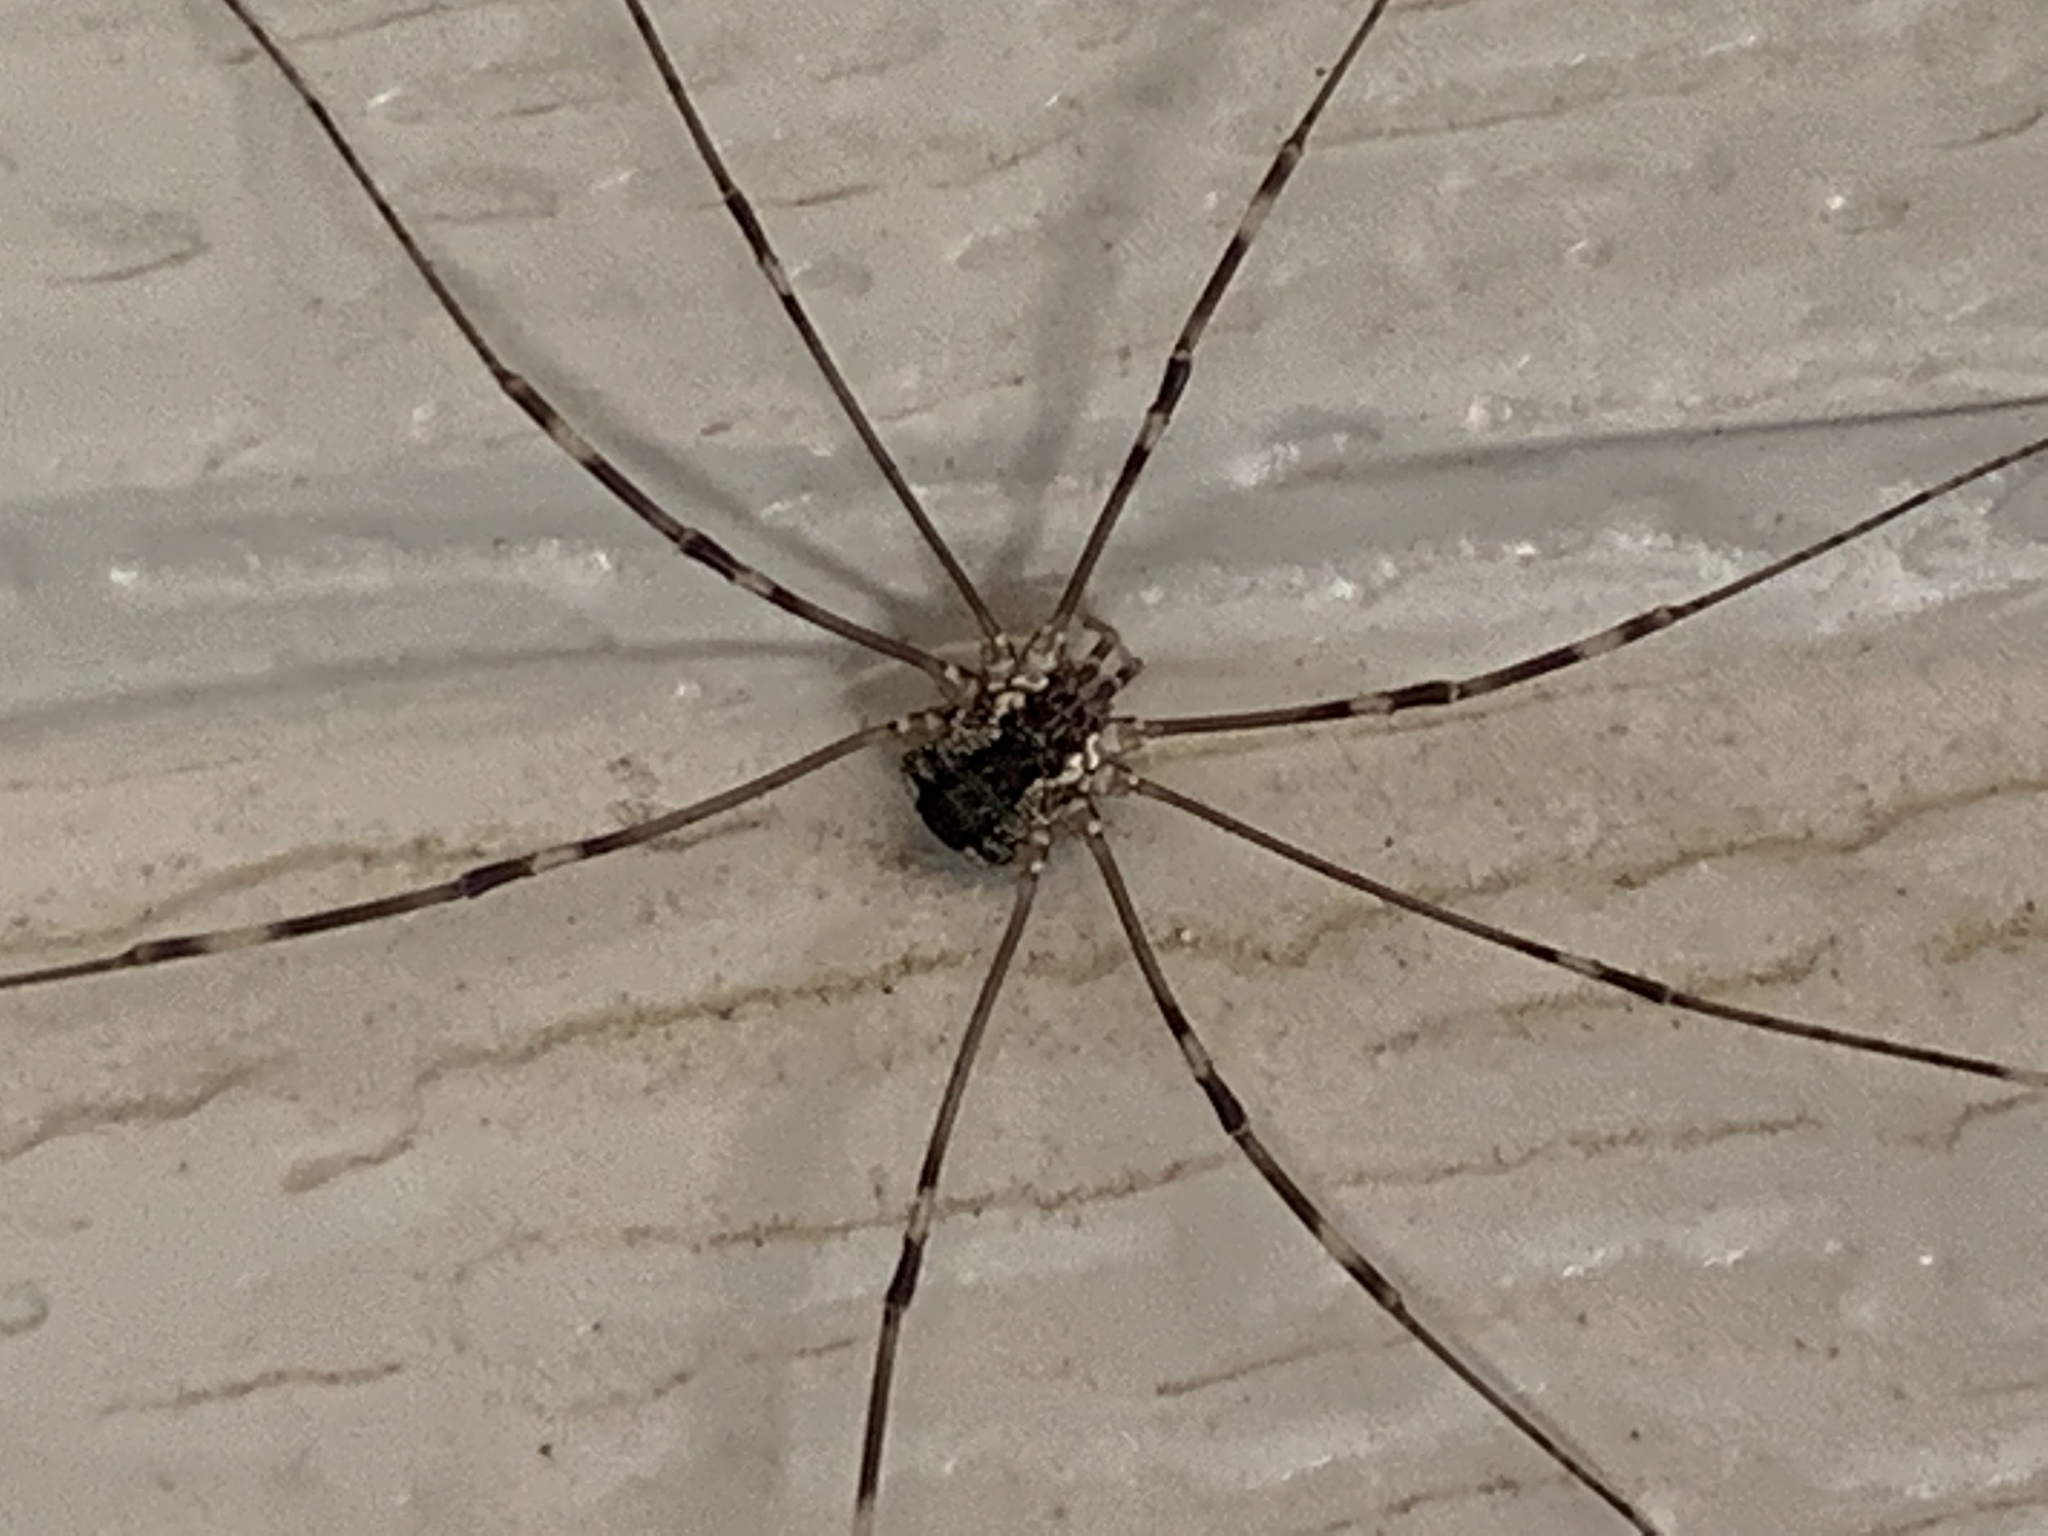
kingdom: Animalia
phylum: Arthropoda
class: Arachnida
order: Opiliones
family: Sclerosomatidae
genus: Leiobunum
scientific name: Leiobunum townsendi
